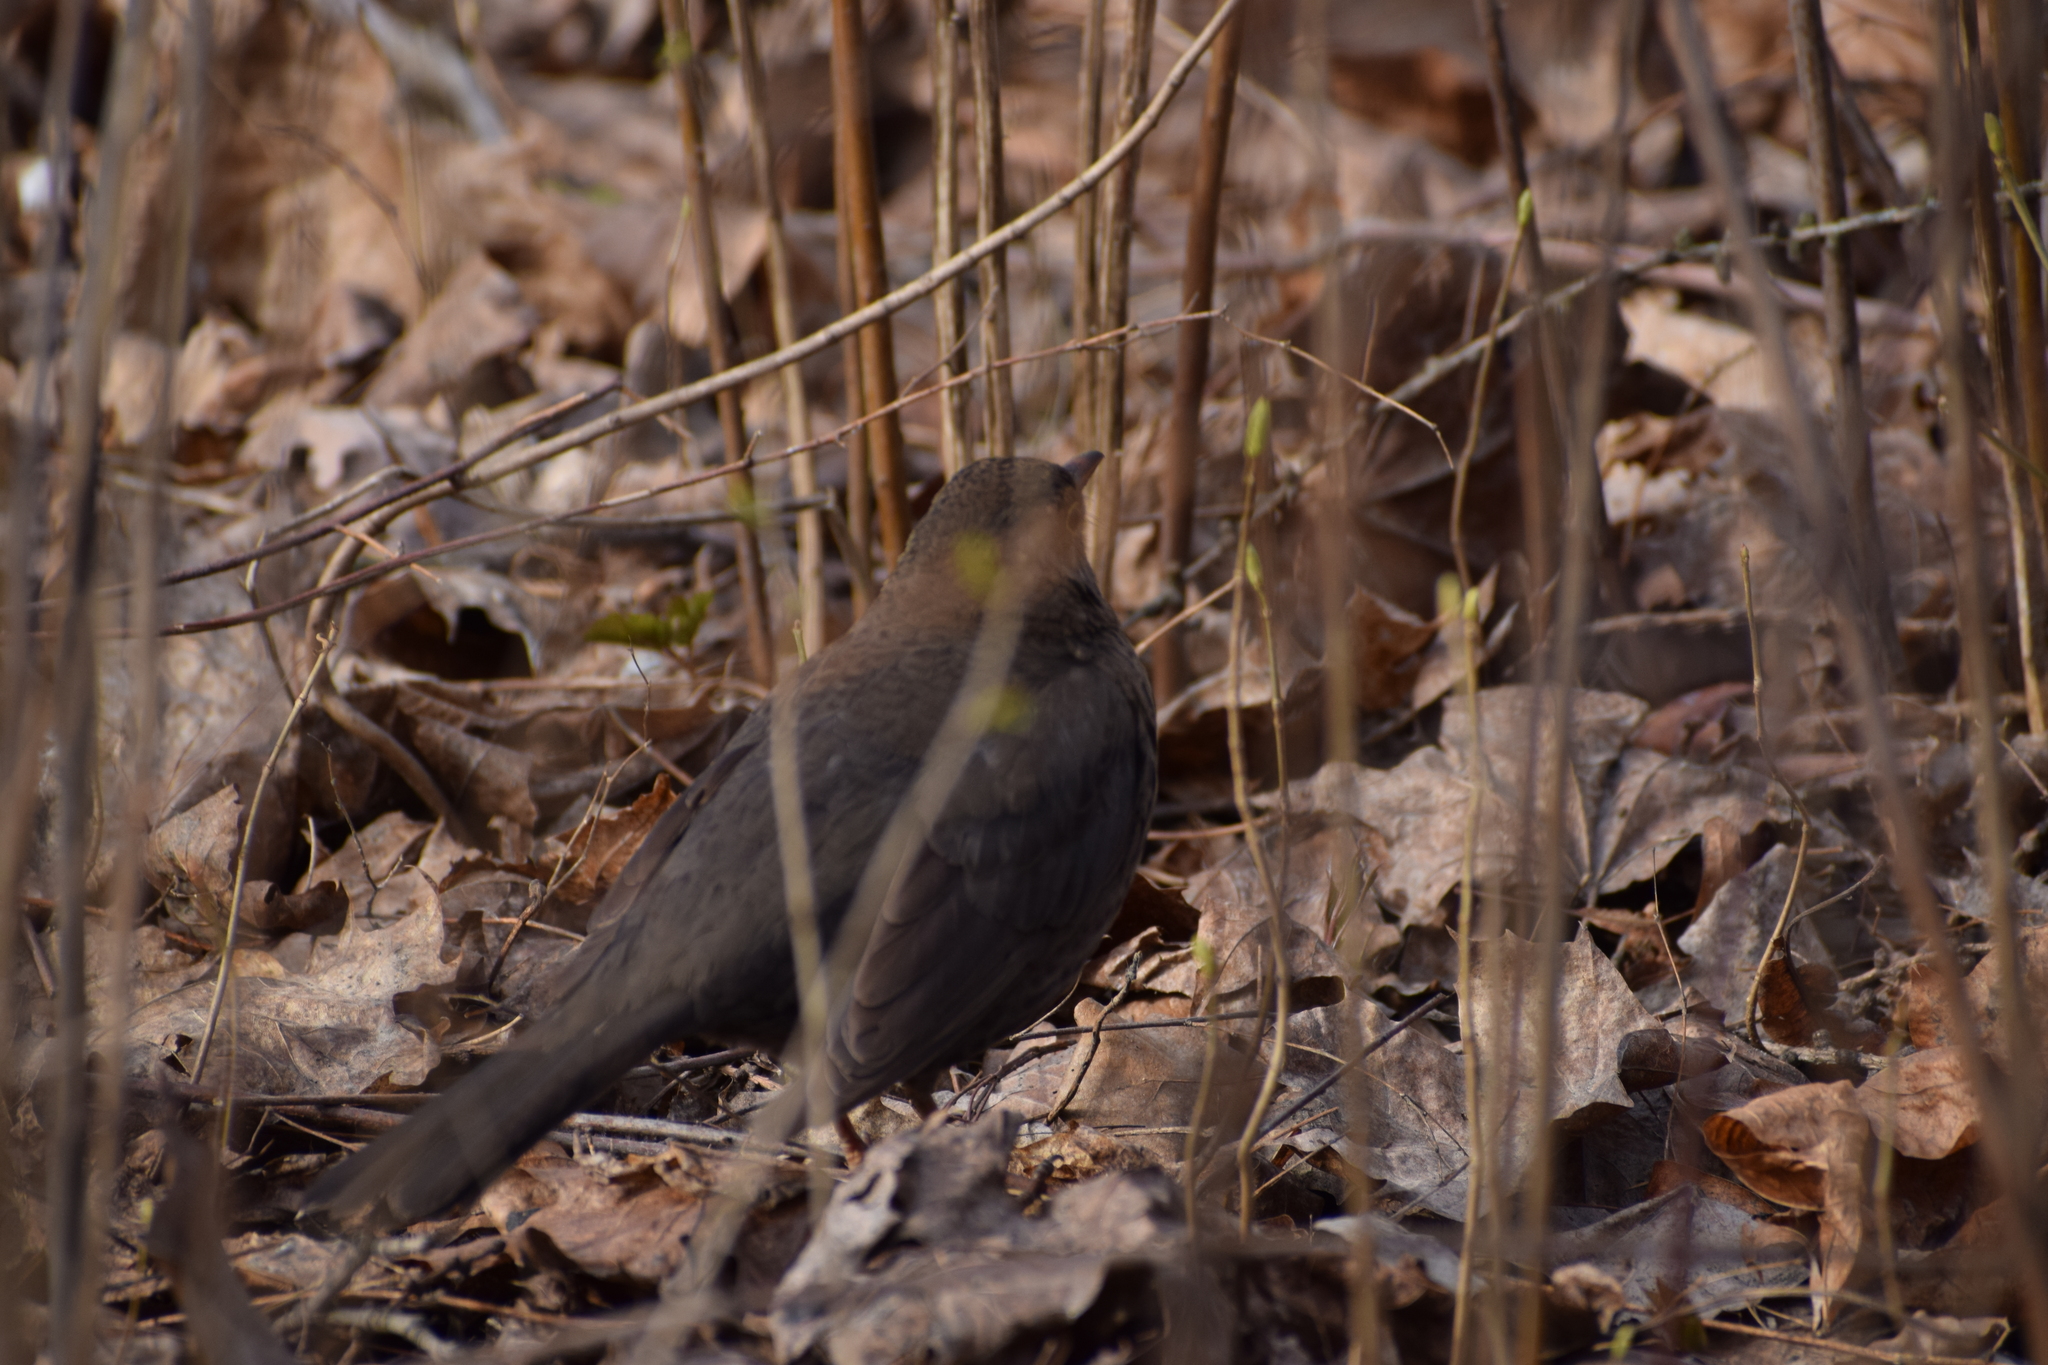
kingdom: Animalia
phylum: Chordata
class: Aves
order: Passeriformes
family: Turdidae
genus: Turdus
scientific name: Turdus merula
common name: Common blackbird
